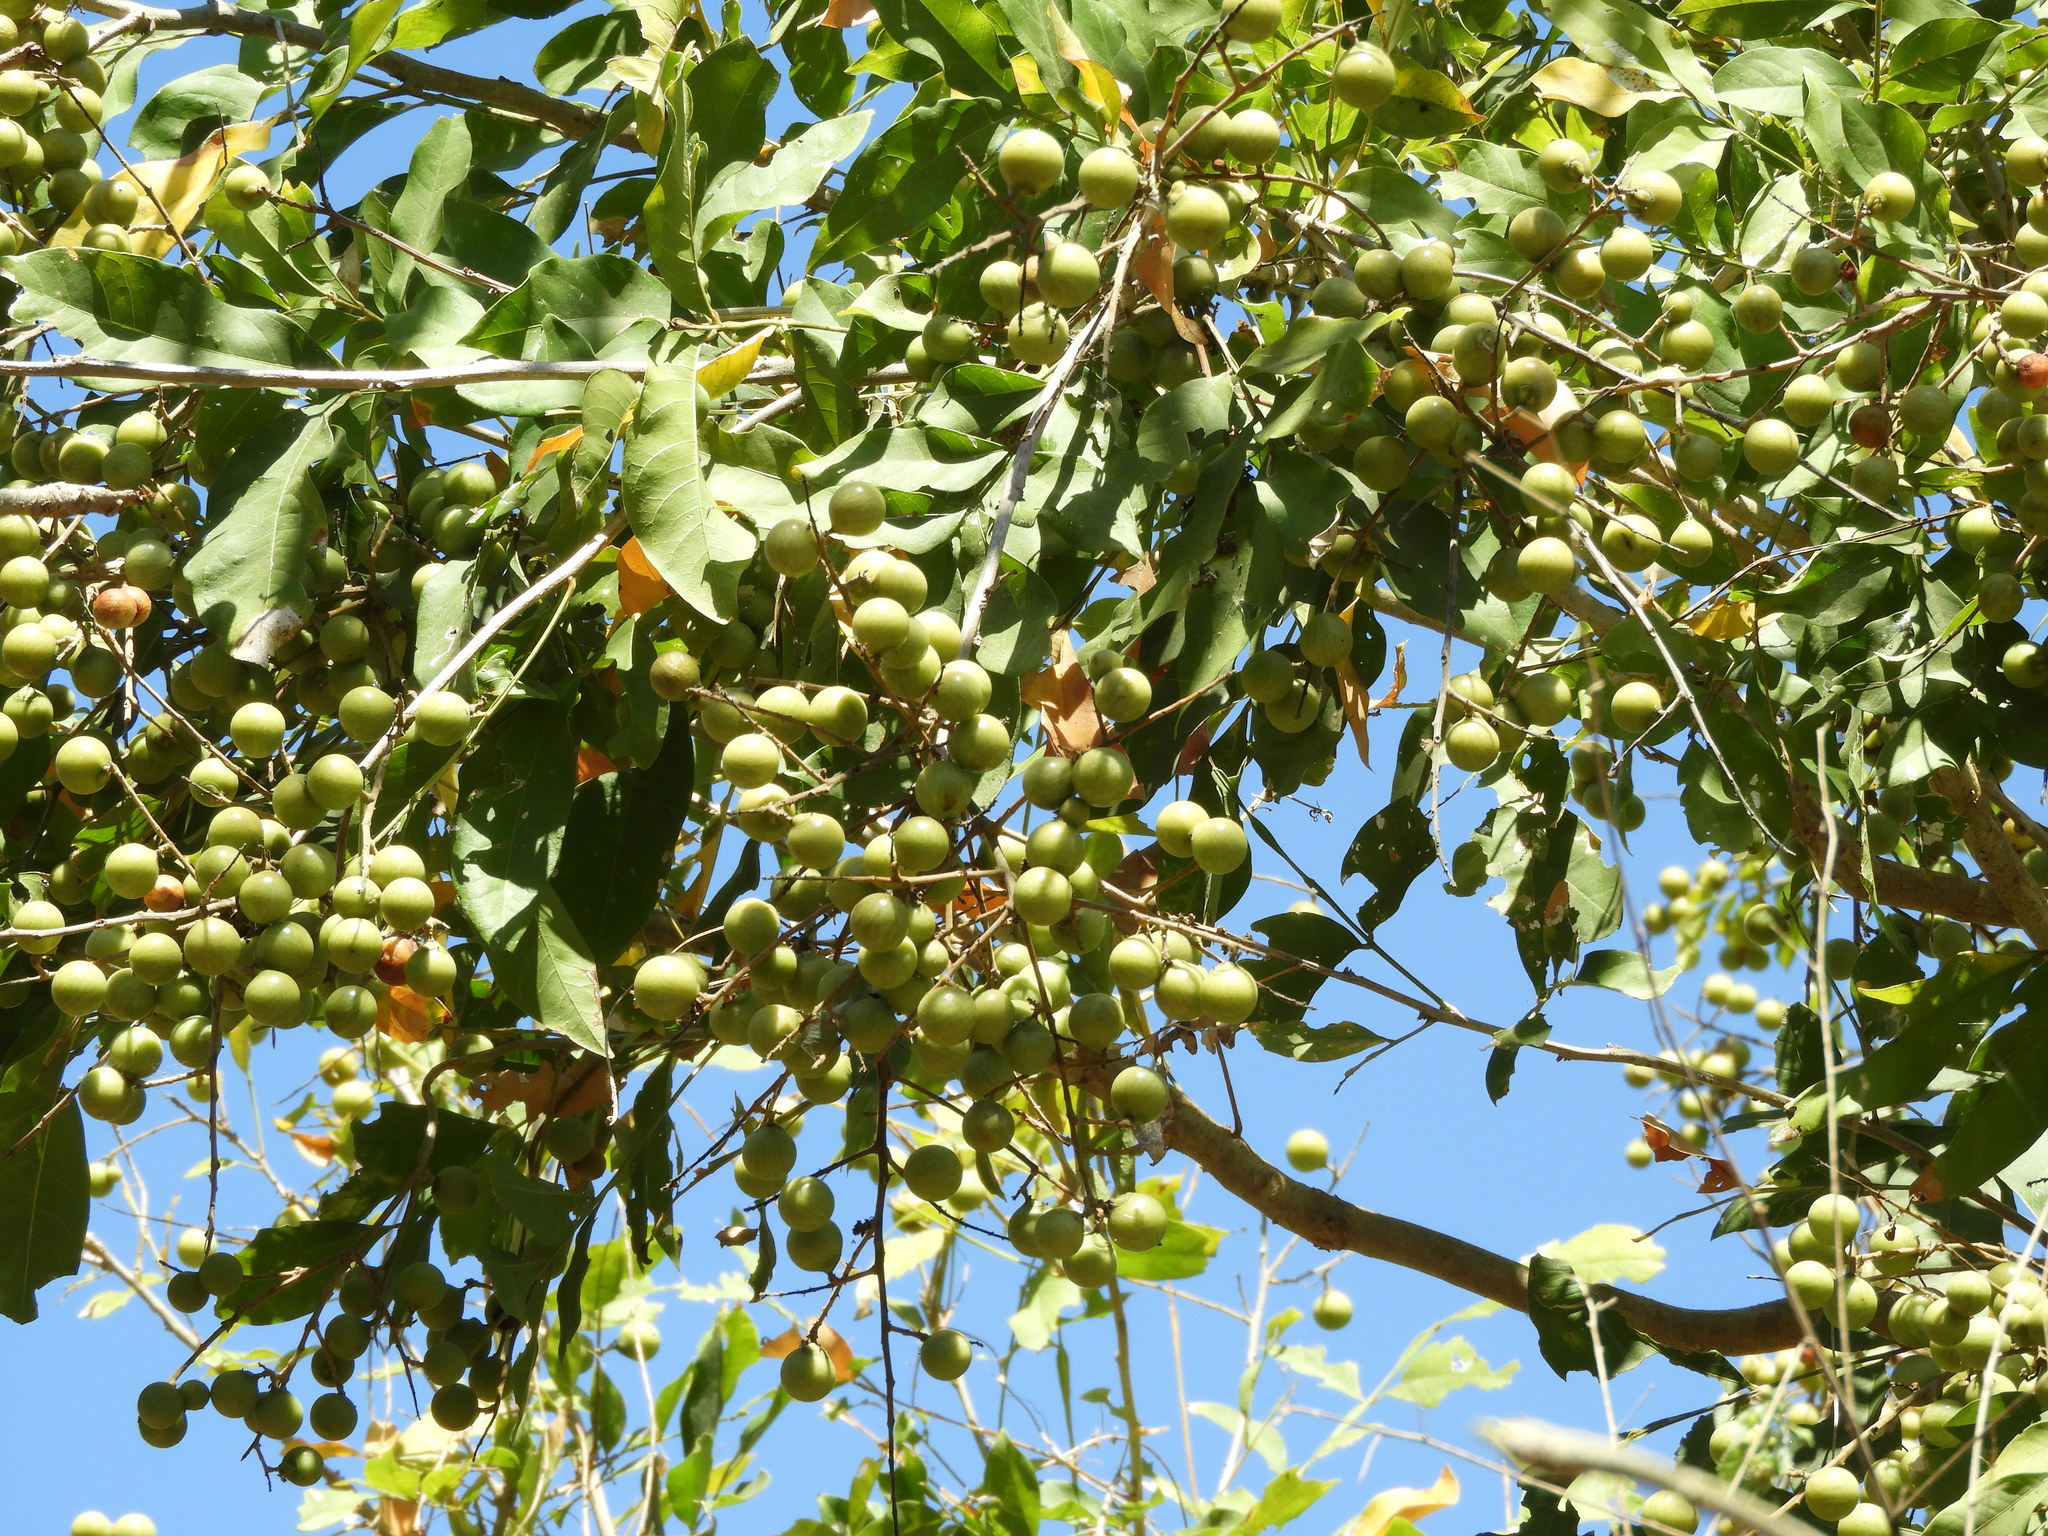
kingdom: Plantae
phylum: Tracheophyta
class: Magnoliopsida
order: Sapindales
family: Sapindaceae
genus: Sapindus
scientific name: Sapindus drummondii
